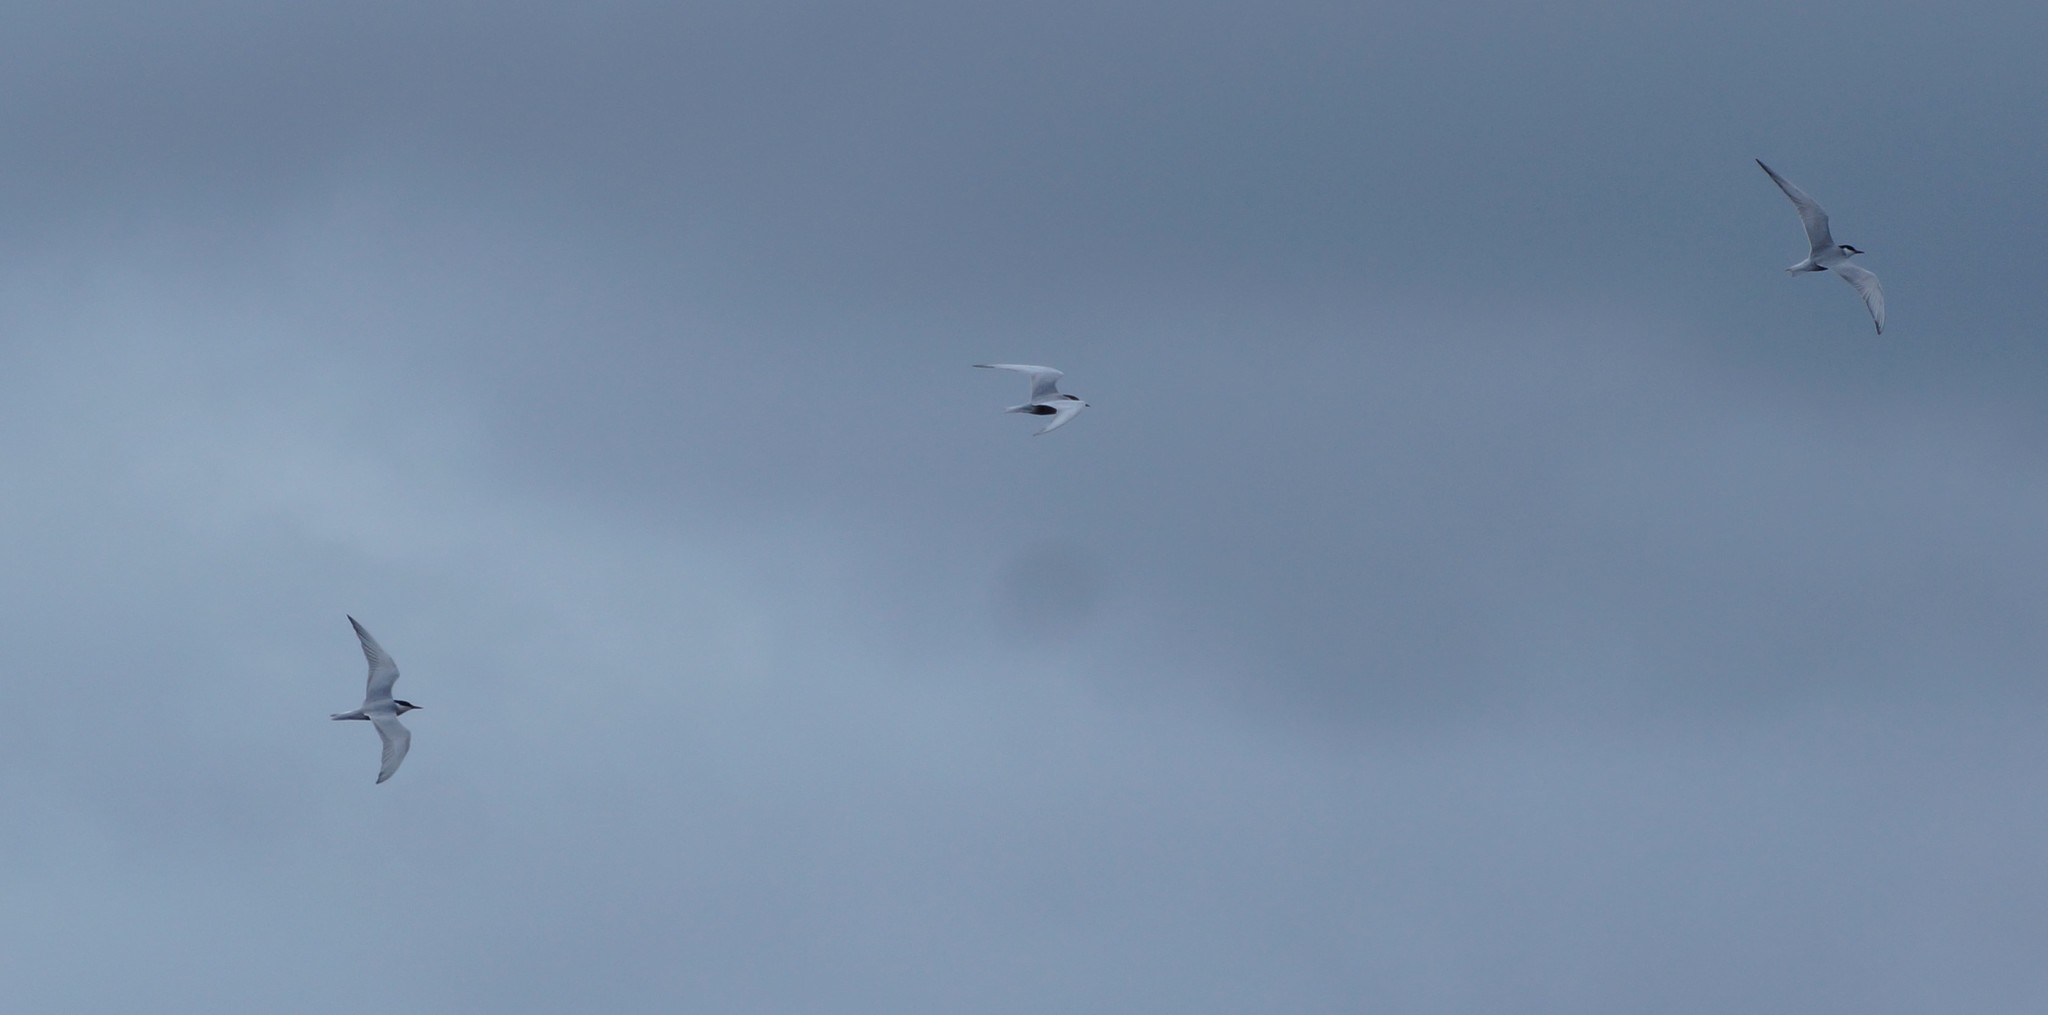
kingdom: Animalia
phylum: Chordata
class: Aves
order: Charadriiformes
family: Laridae
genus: Chlidonias
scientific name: Chlidonias hybrida
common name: Whiskered tern
